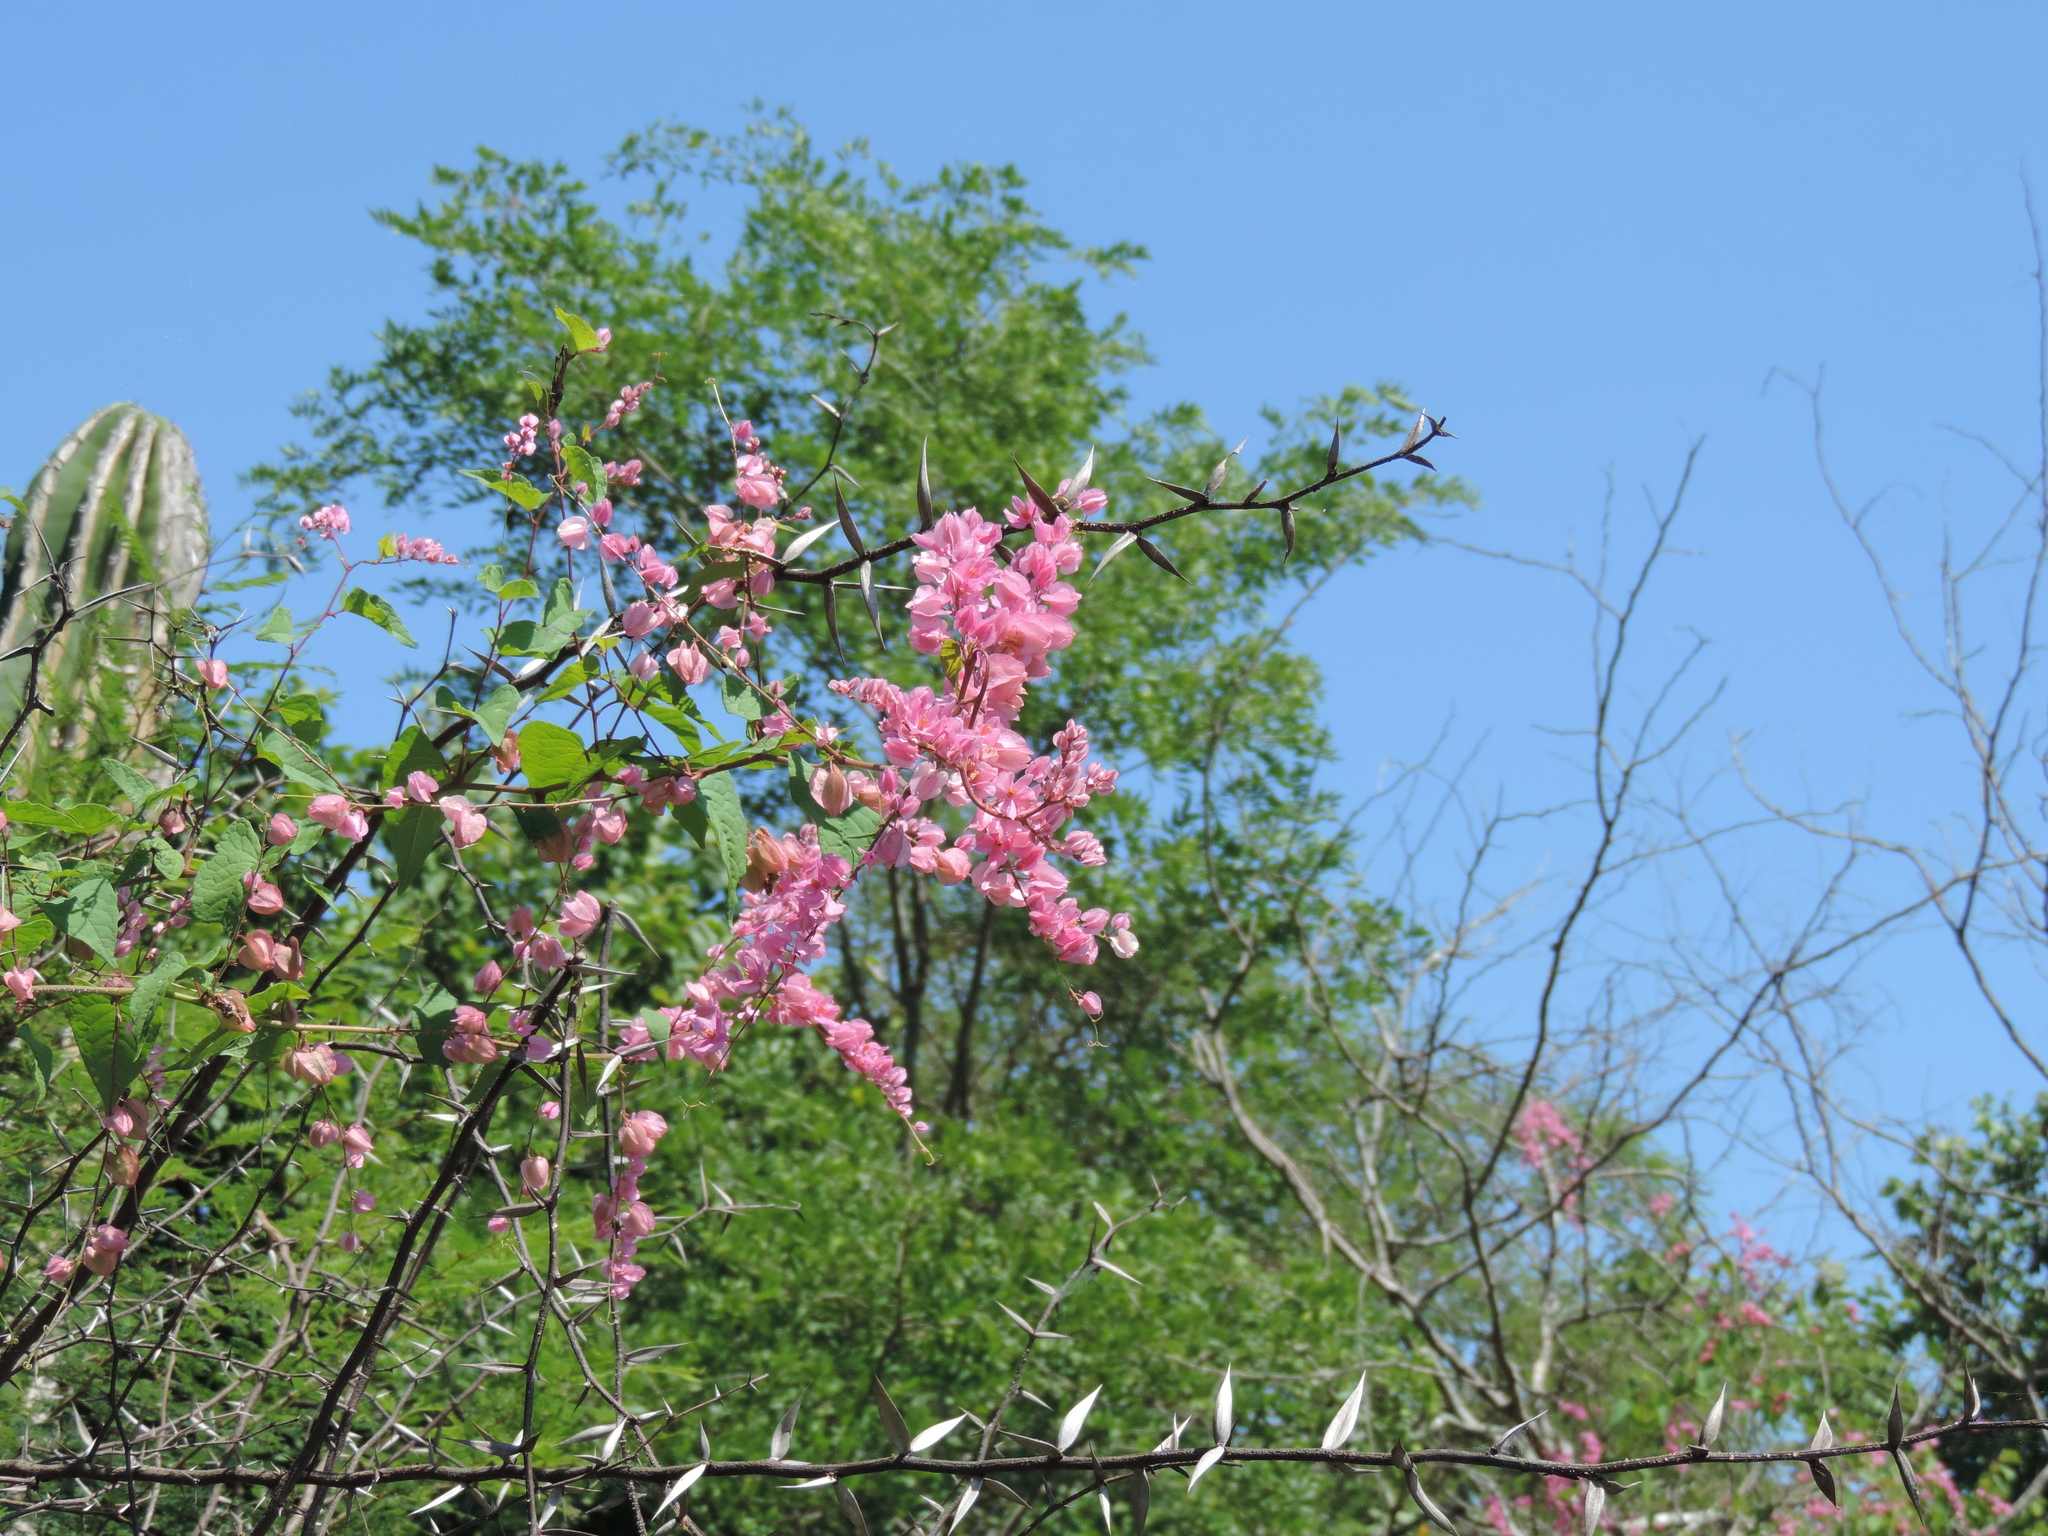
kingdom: Plantae
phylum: Tracheophyta
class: Magnoliopsida
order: Caryophyllales
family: Polygonaceae
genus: Antigonon
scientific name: Antigonon leptopus
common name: Coral vine
